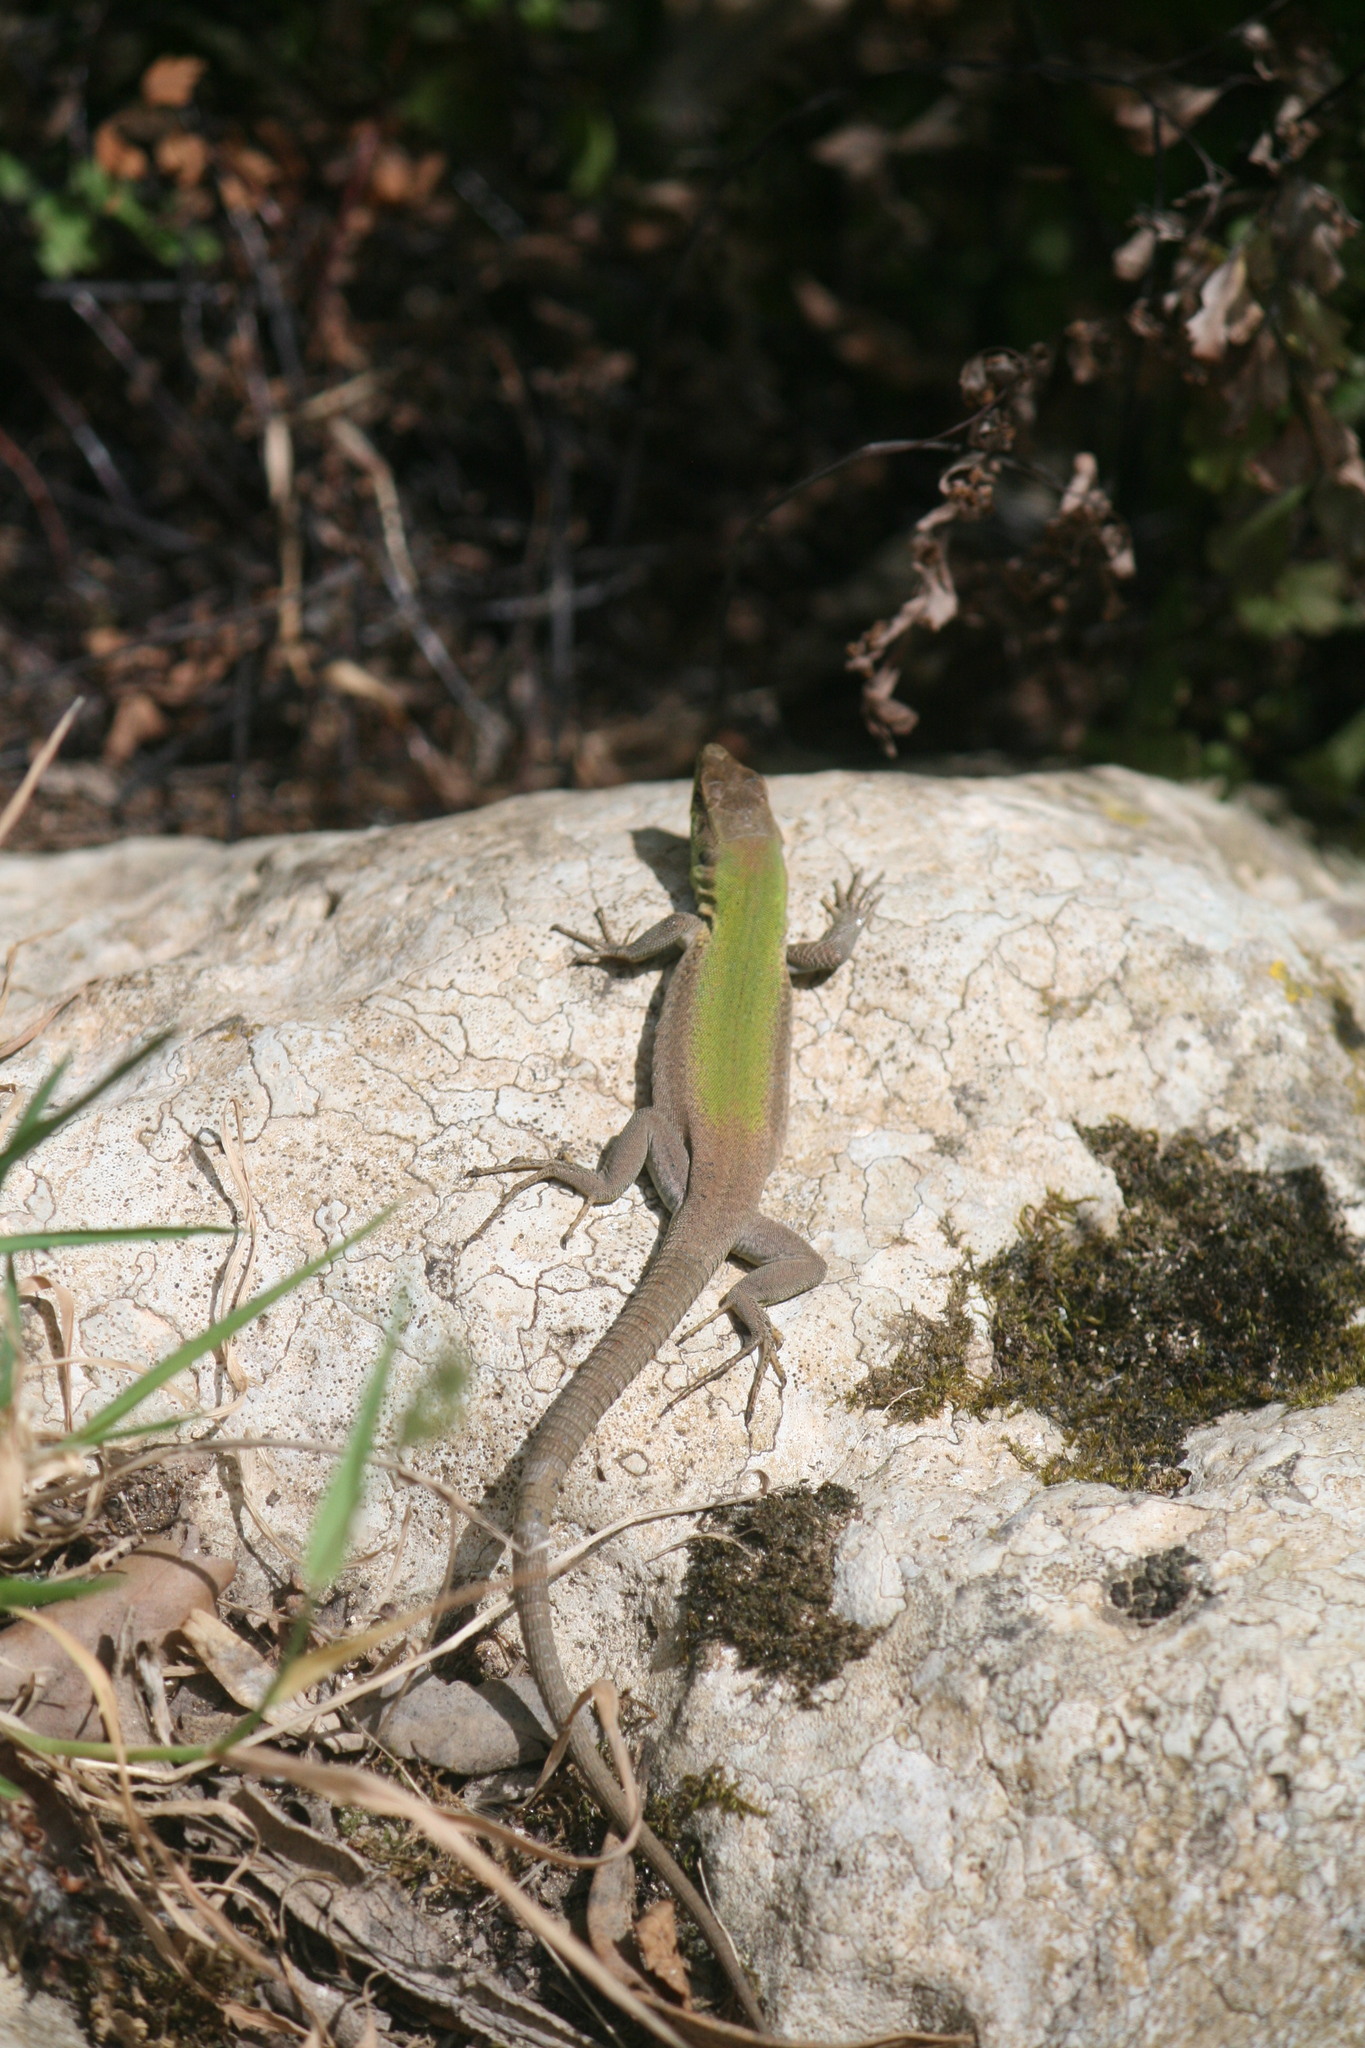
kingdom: Animalia
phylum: Chordata
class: Squamata
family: Lacertidae
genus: Podarcis
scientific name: Podarcis siculus
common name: Italian wall lizard
